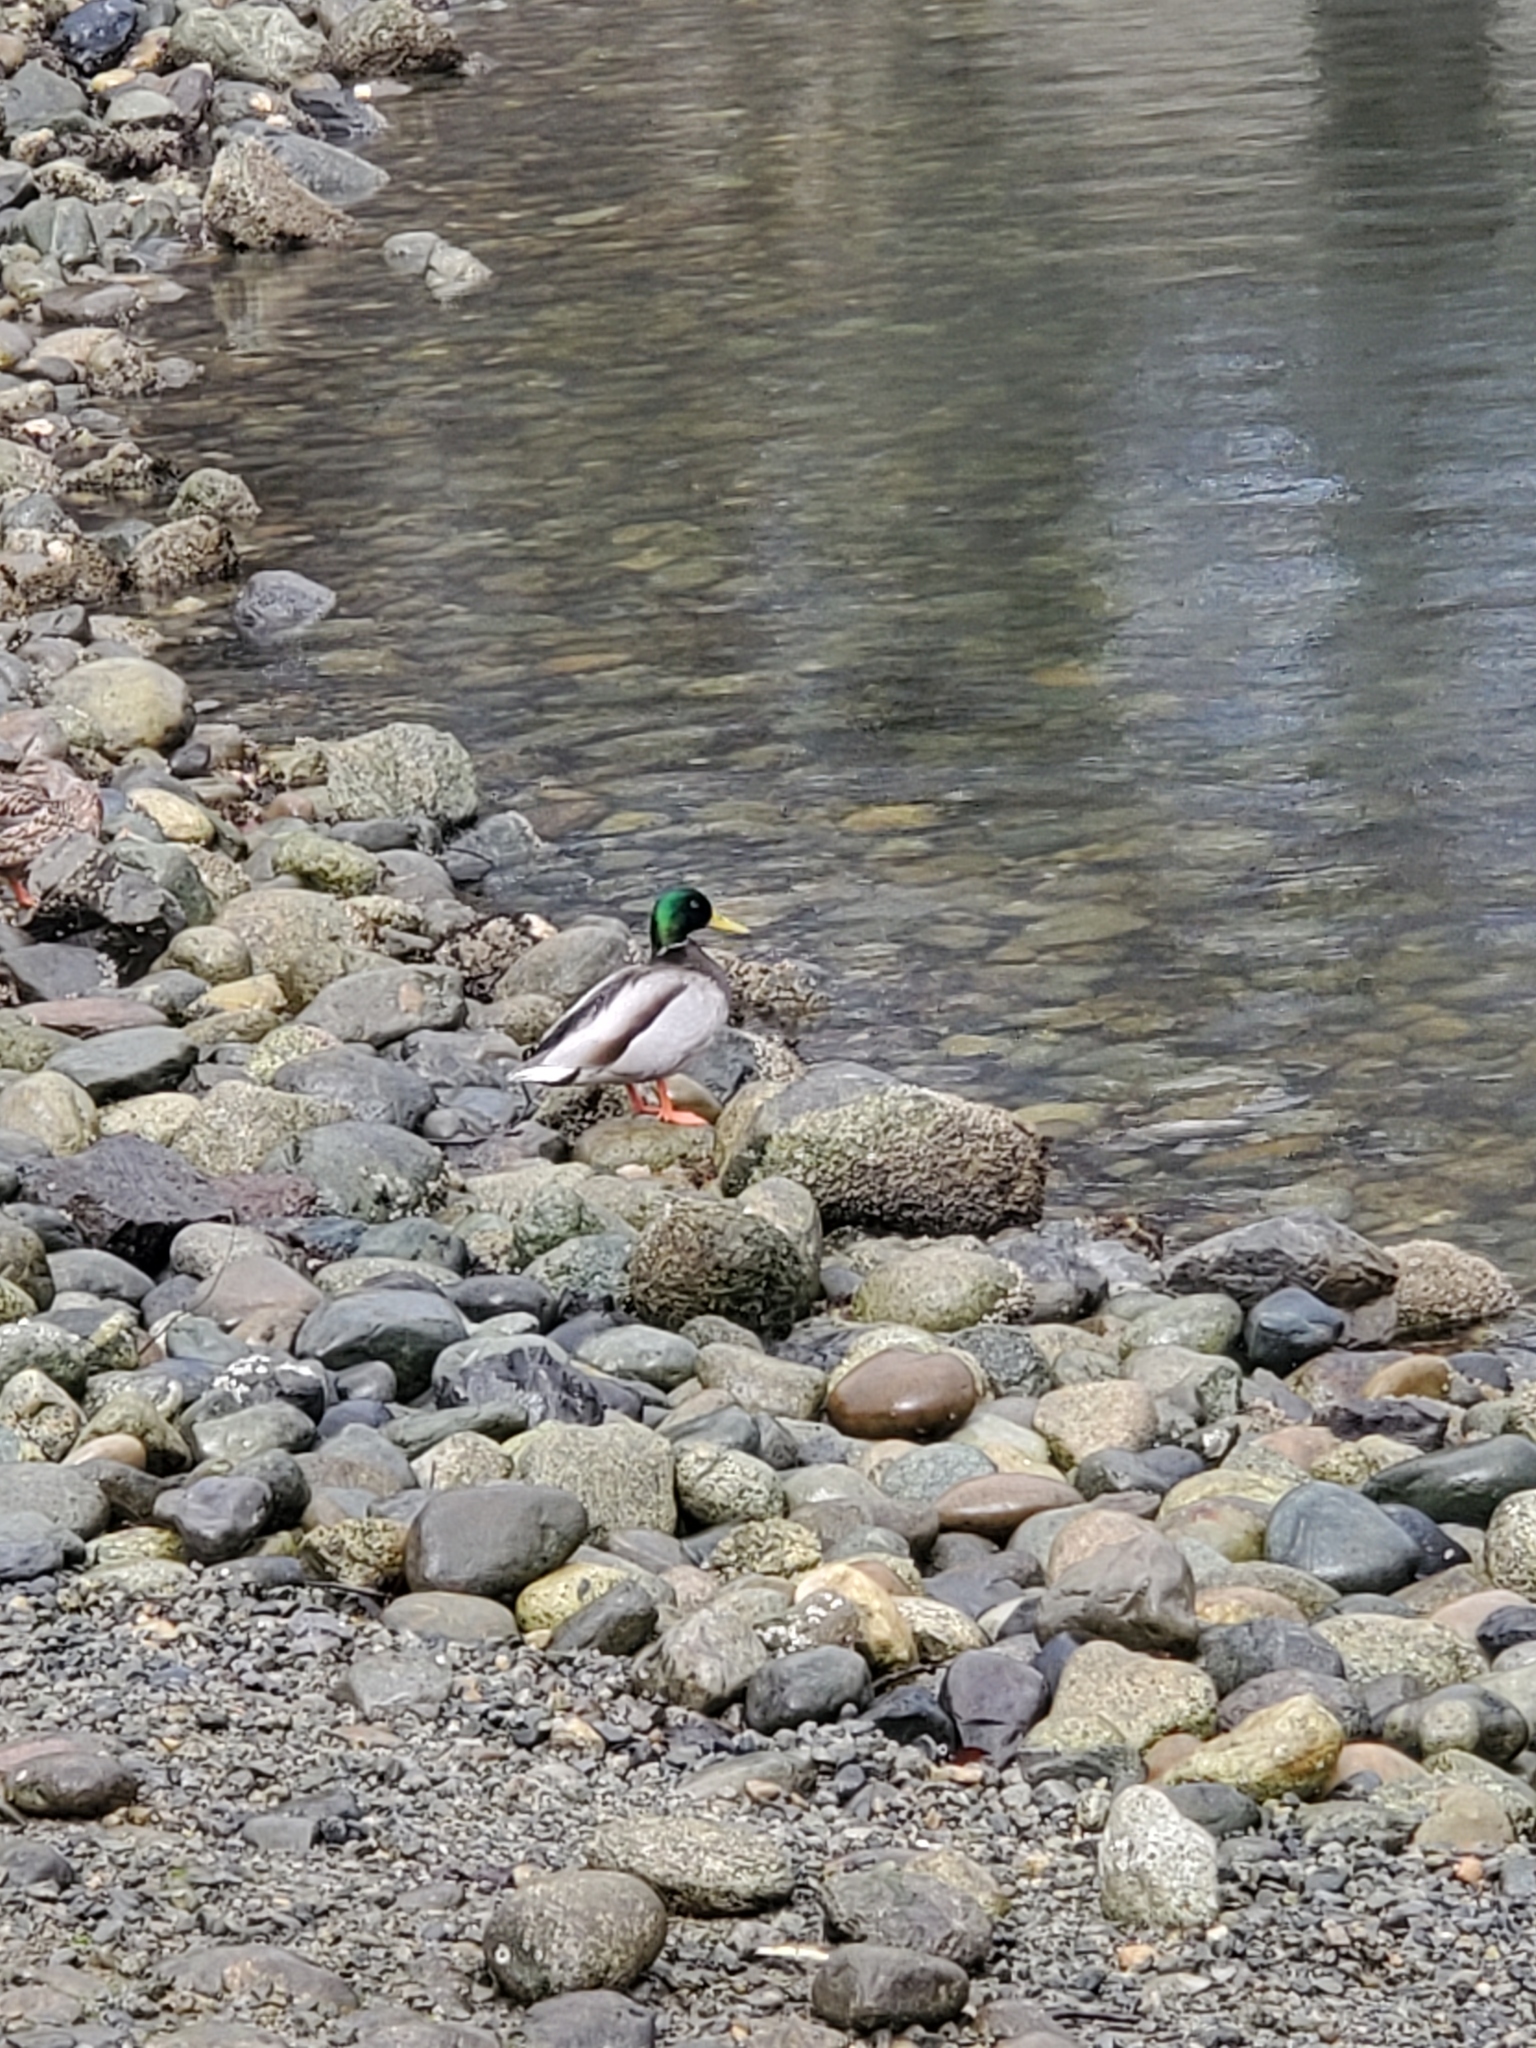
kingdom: Animalia
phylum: Chordata
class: Aves
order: Anseriformes
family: Anatidae
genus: Anas
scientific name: Anas platyrhynchos
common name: Mallard
